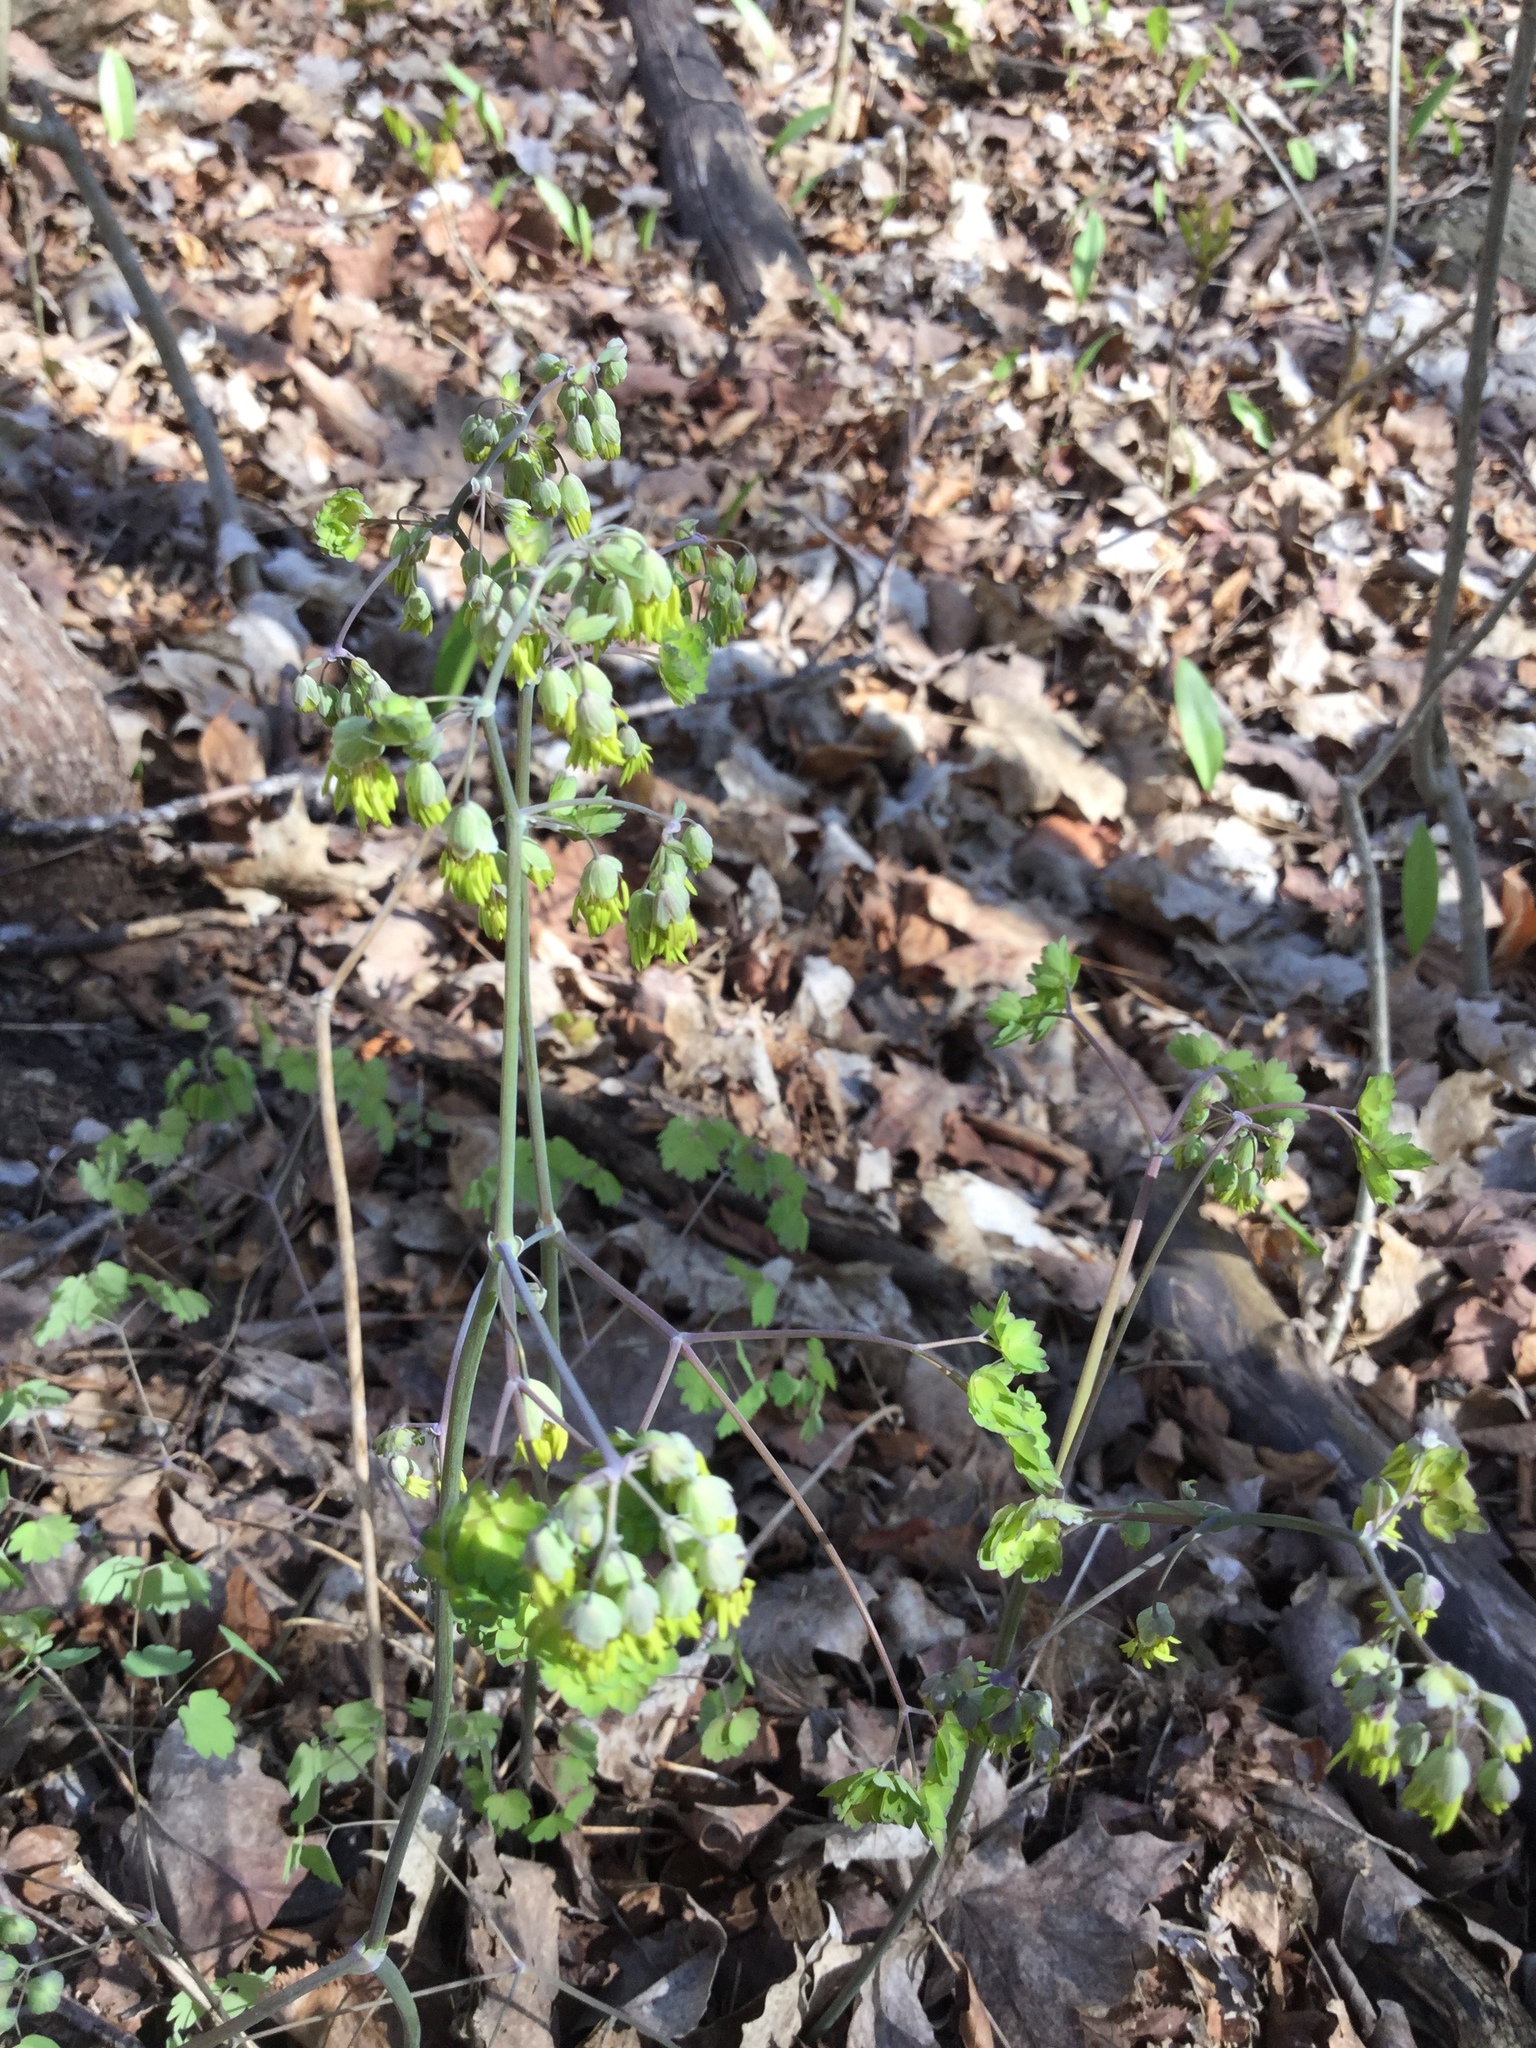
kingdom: Plantae
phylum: Tracheophyta
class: Magnoliopsida
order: Ranunculales
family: Ranunculaceae
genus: Thalictrum
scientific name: Thalictrum dioicum
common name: Early meadow-rue
